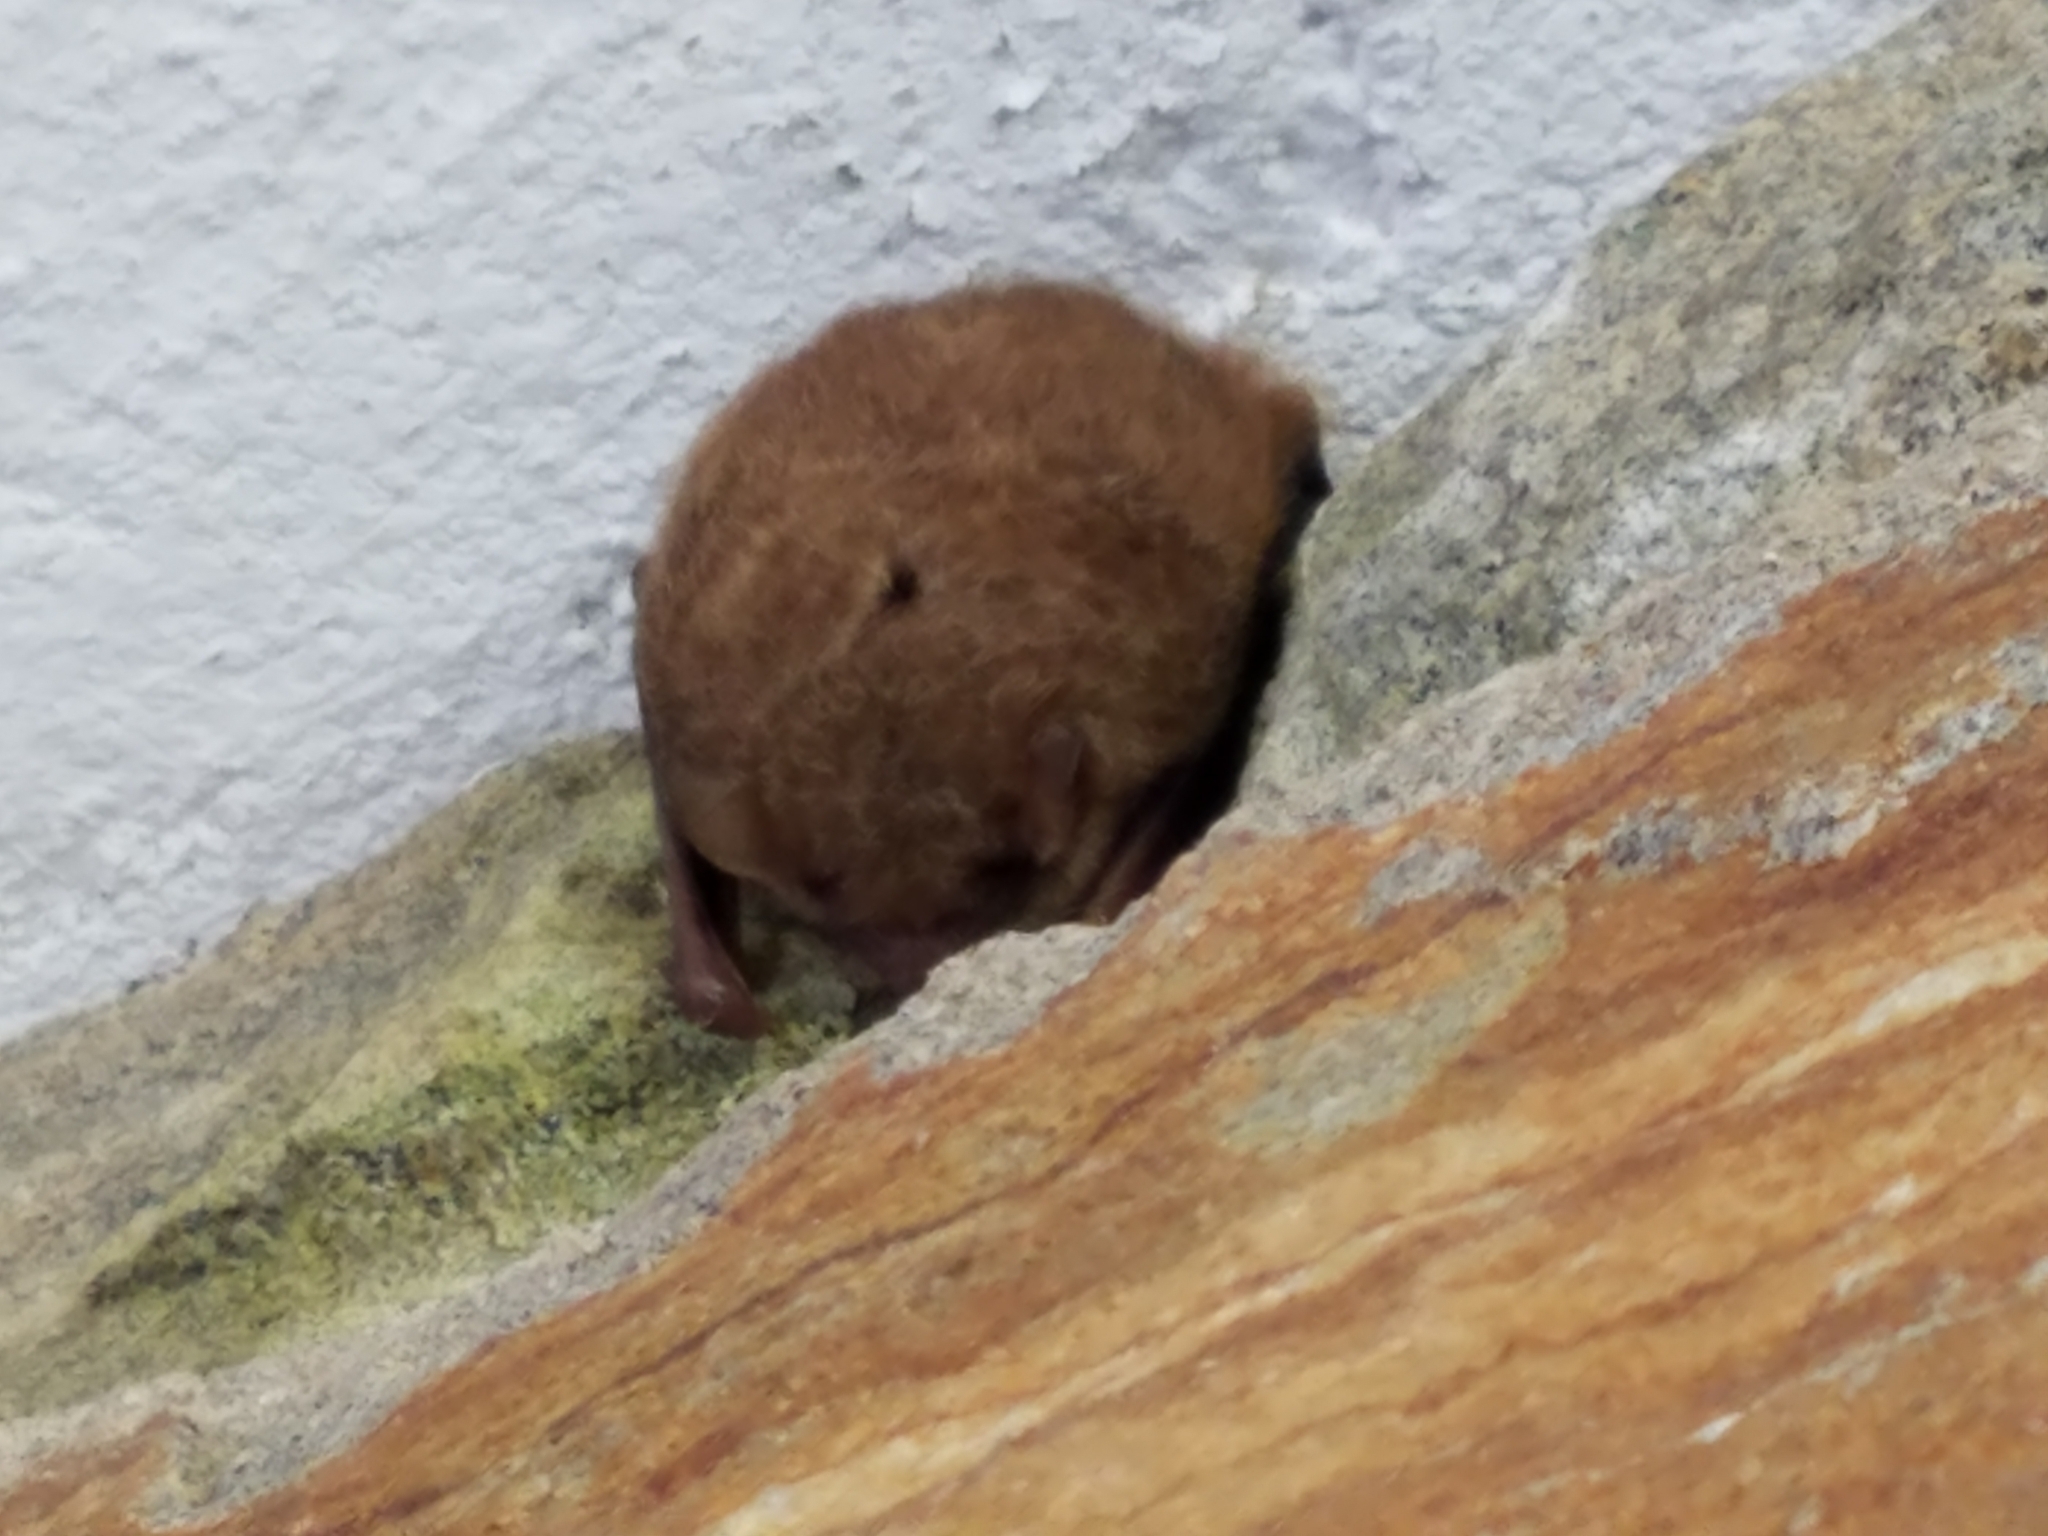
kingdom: Animalia
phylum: Chordata
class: Mammalia
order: Chiroptera
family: Vespertilionidae
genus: Perimyotis
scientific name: Perimyotis subflavus
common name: Eastern pipistrelle
